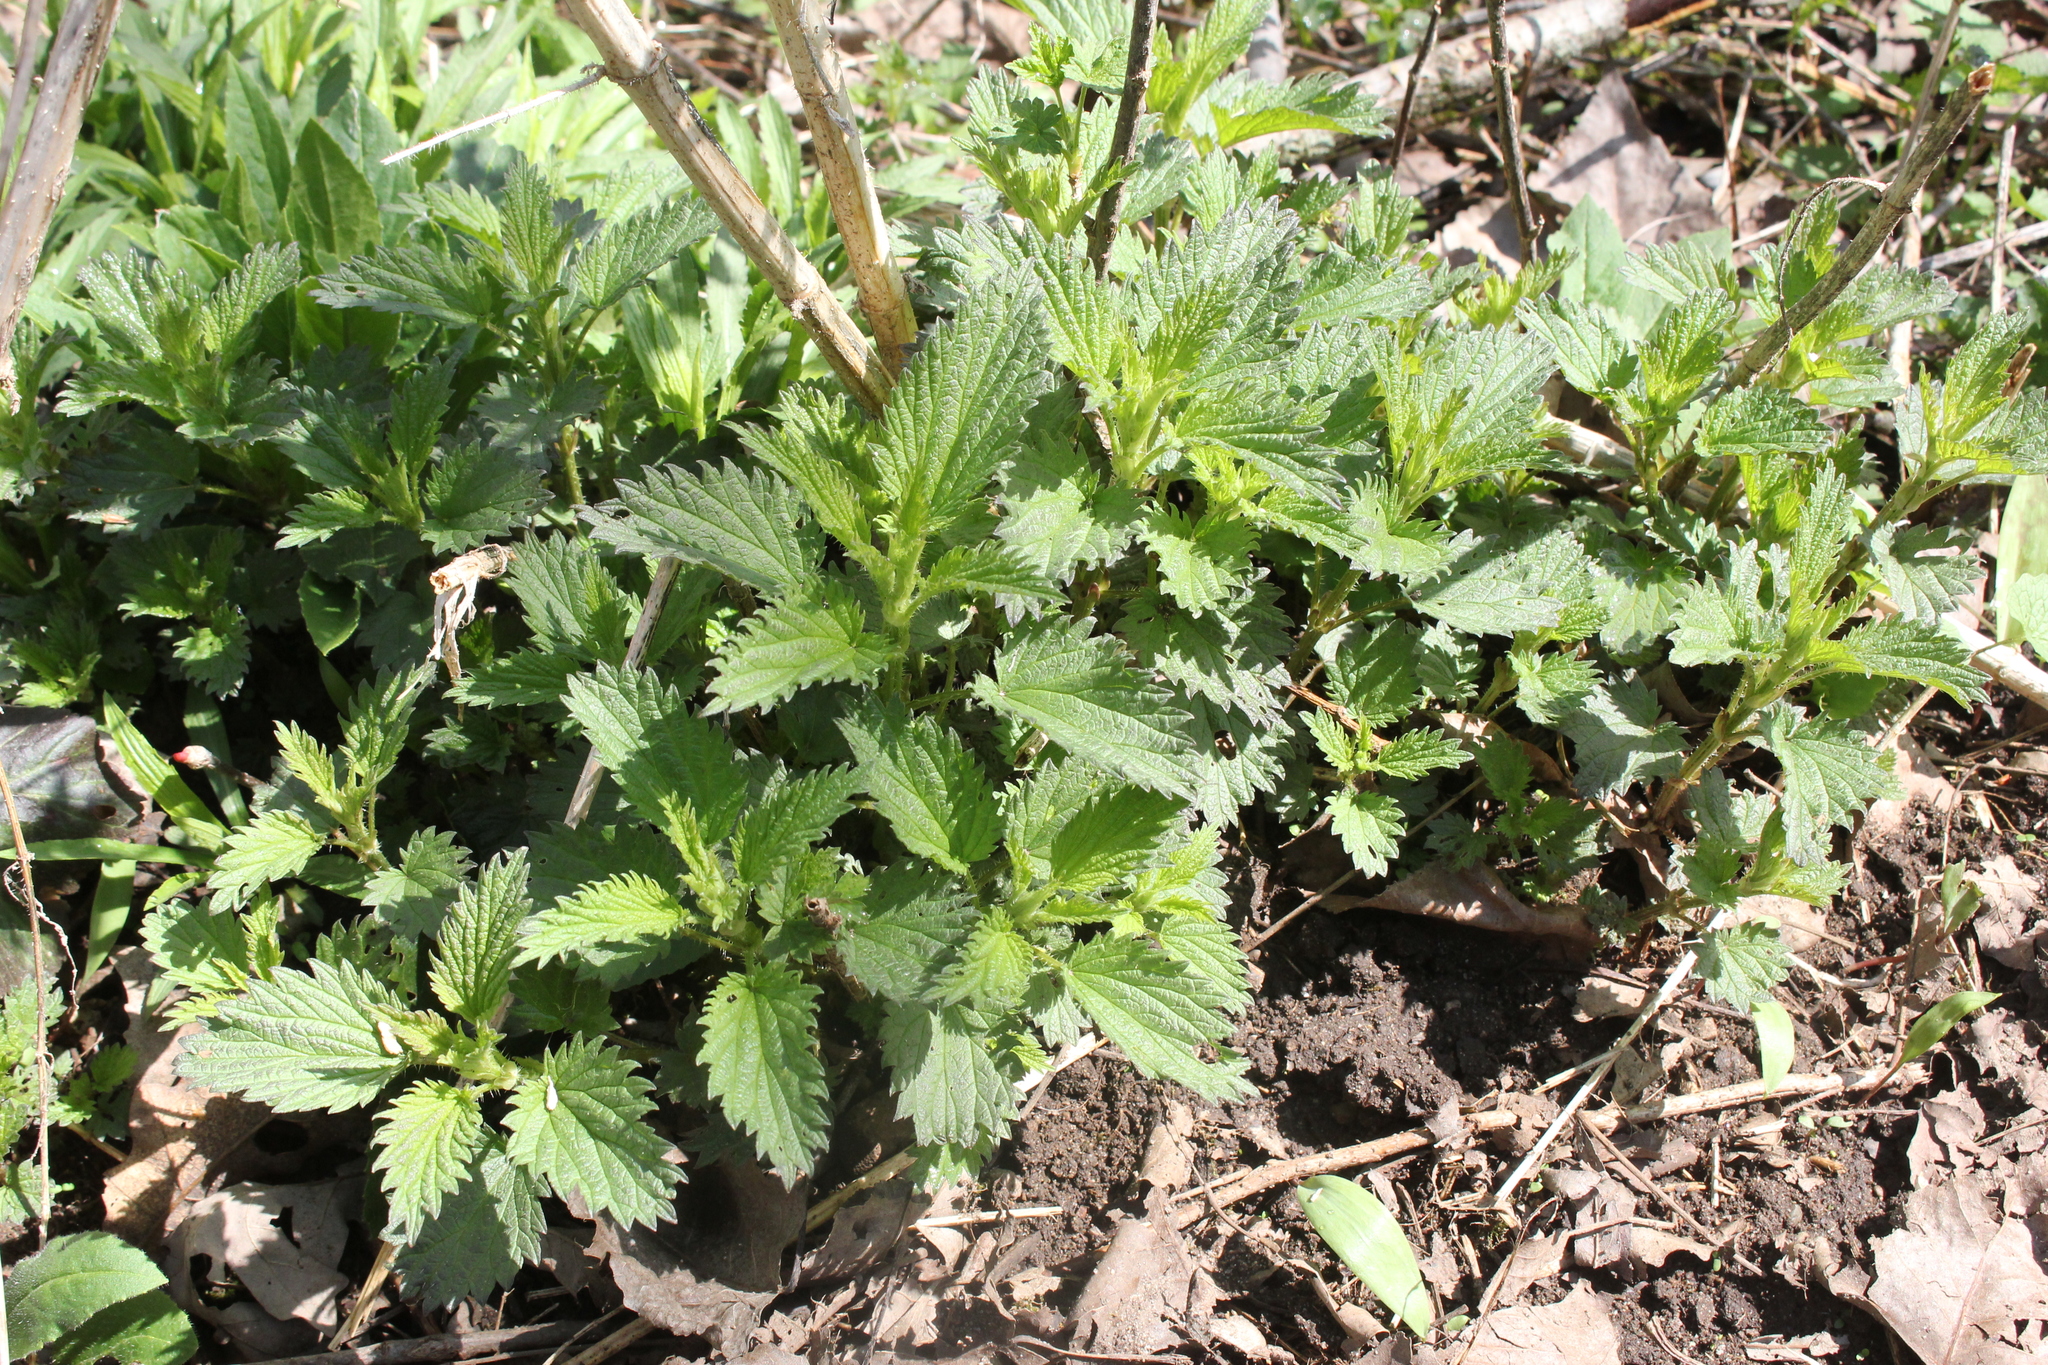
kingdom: Plantae
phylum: Tracheophyta
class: Magnoliopsida
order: Rosales
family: Urticaceae
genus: Urtica
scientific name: Urtica dioica
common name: Common nettle
